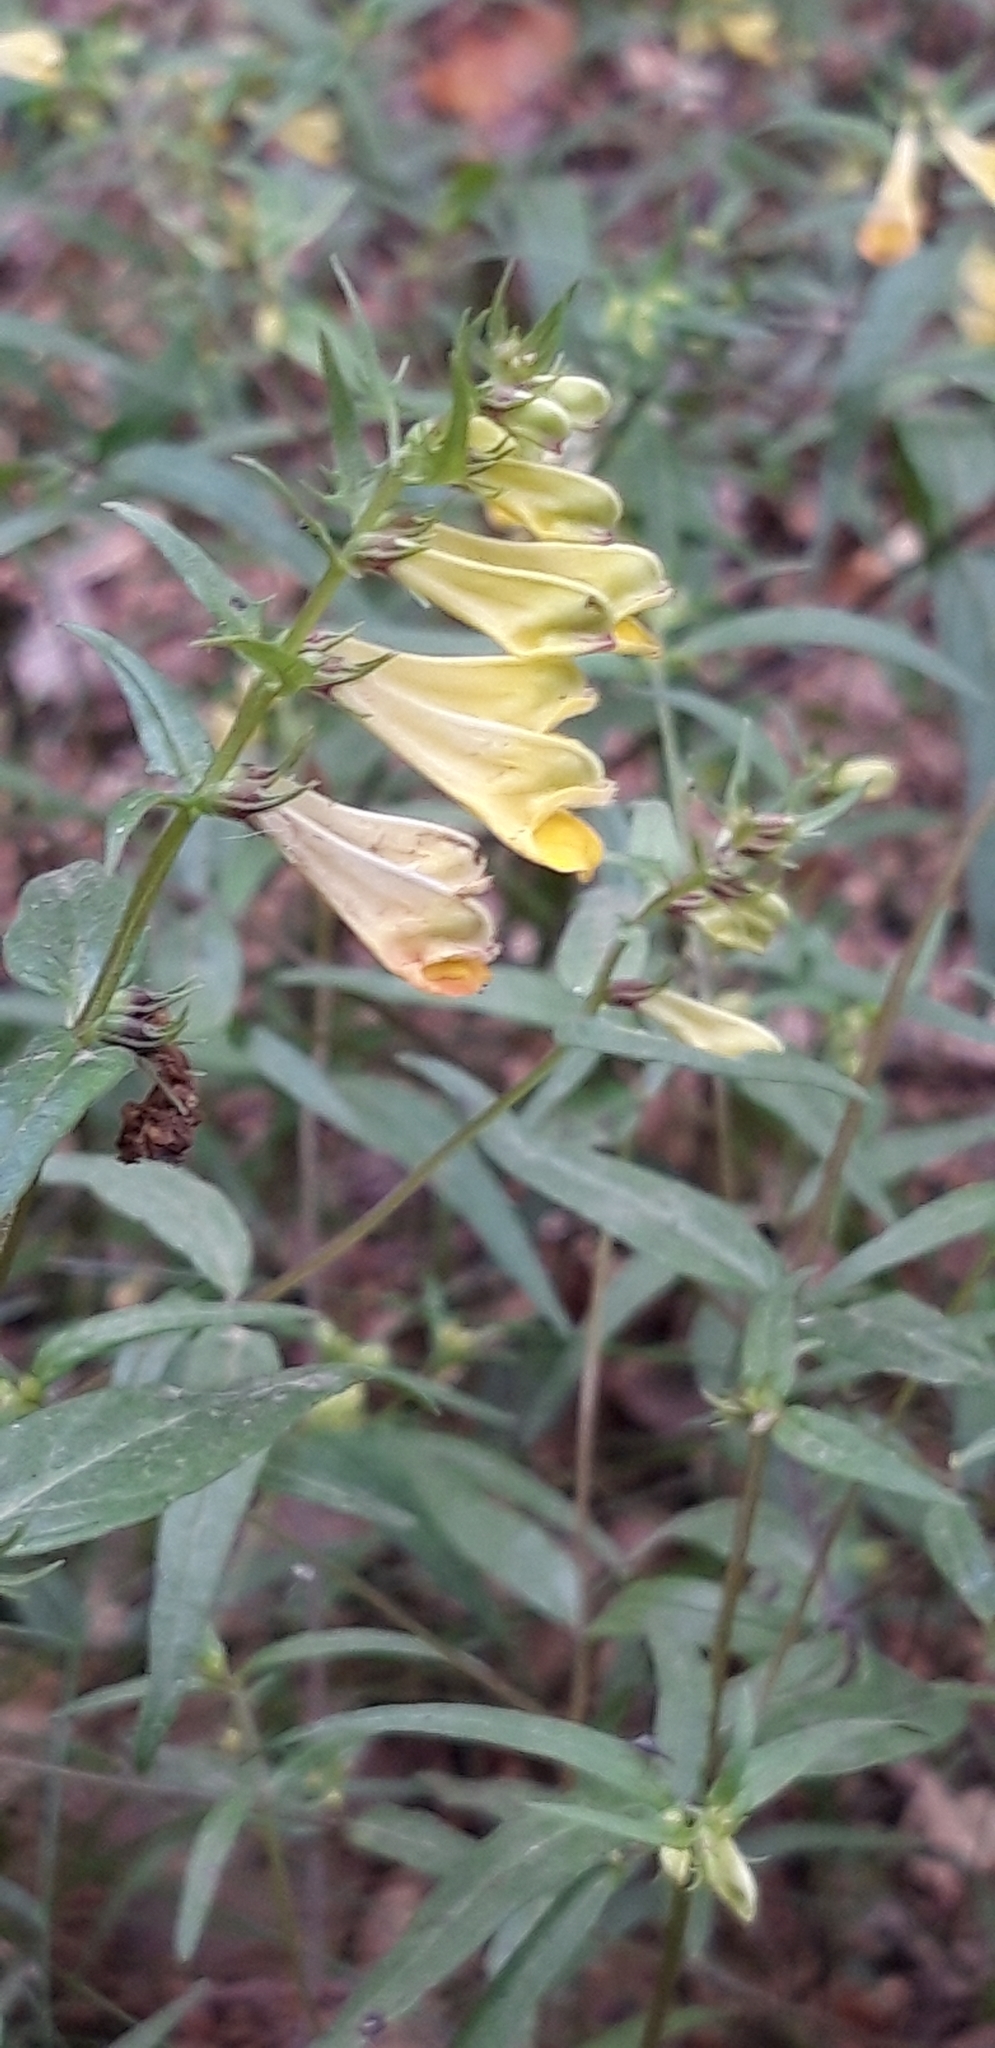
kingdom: Plantae
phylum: Tracheophyta
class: Magnoliopsida
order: Lamiales
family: Orobanchaceae
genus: Melampyrum
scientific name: Melampyrum pratense
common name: Common cow-wheat
